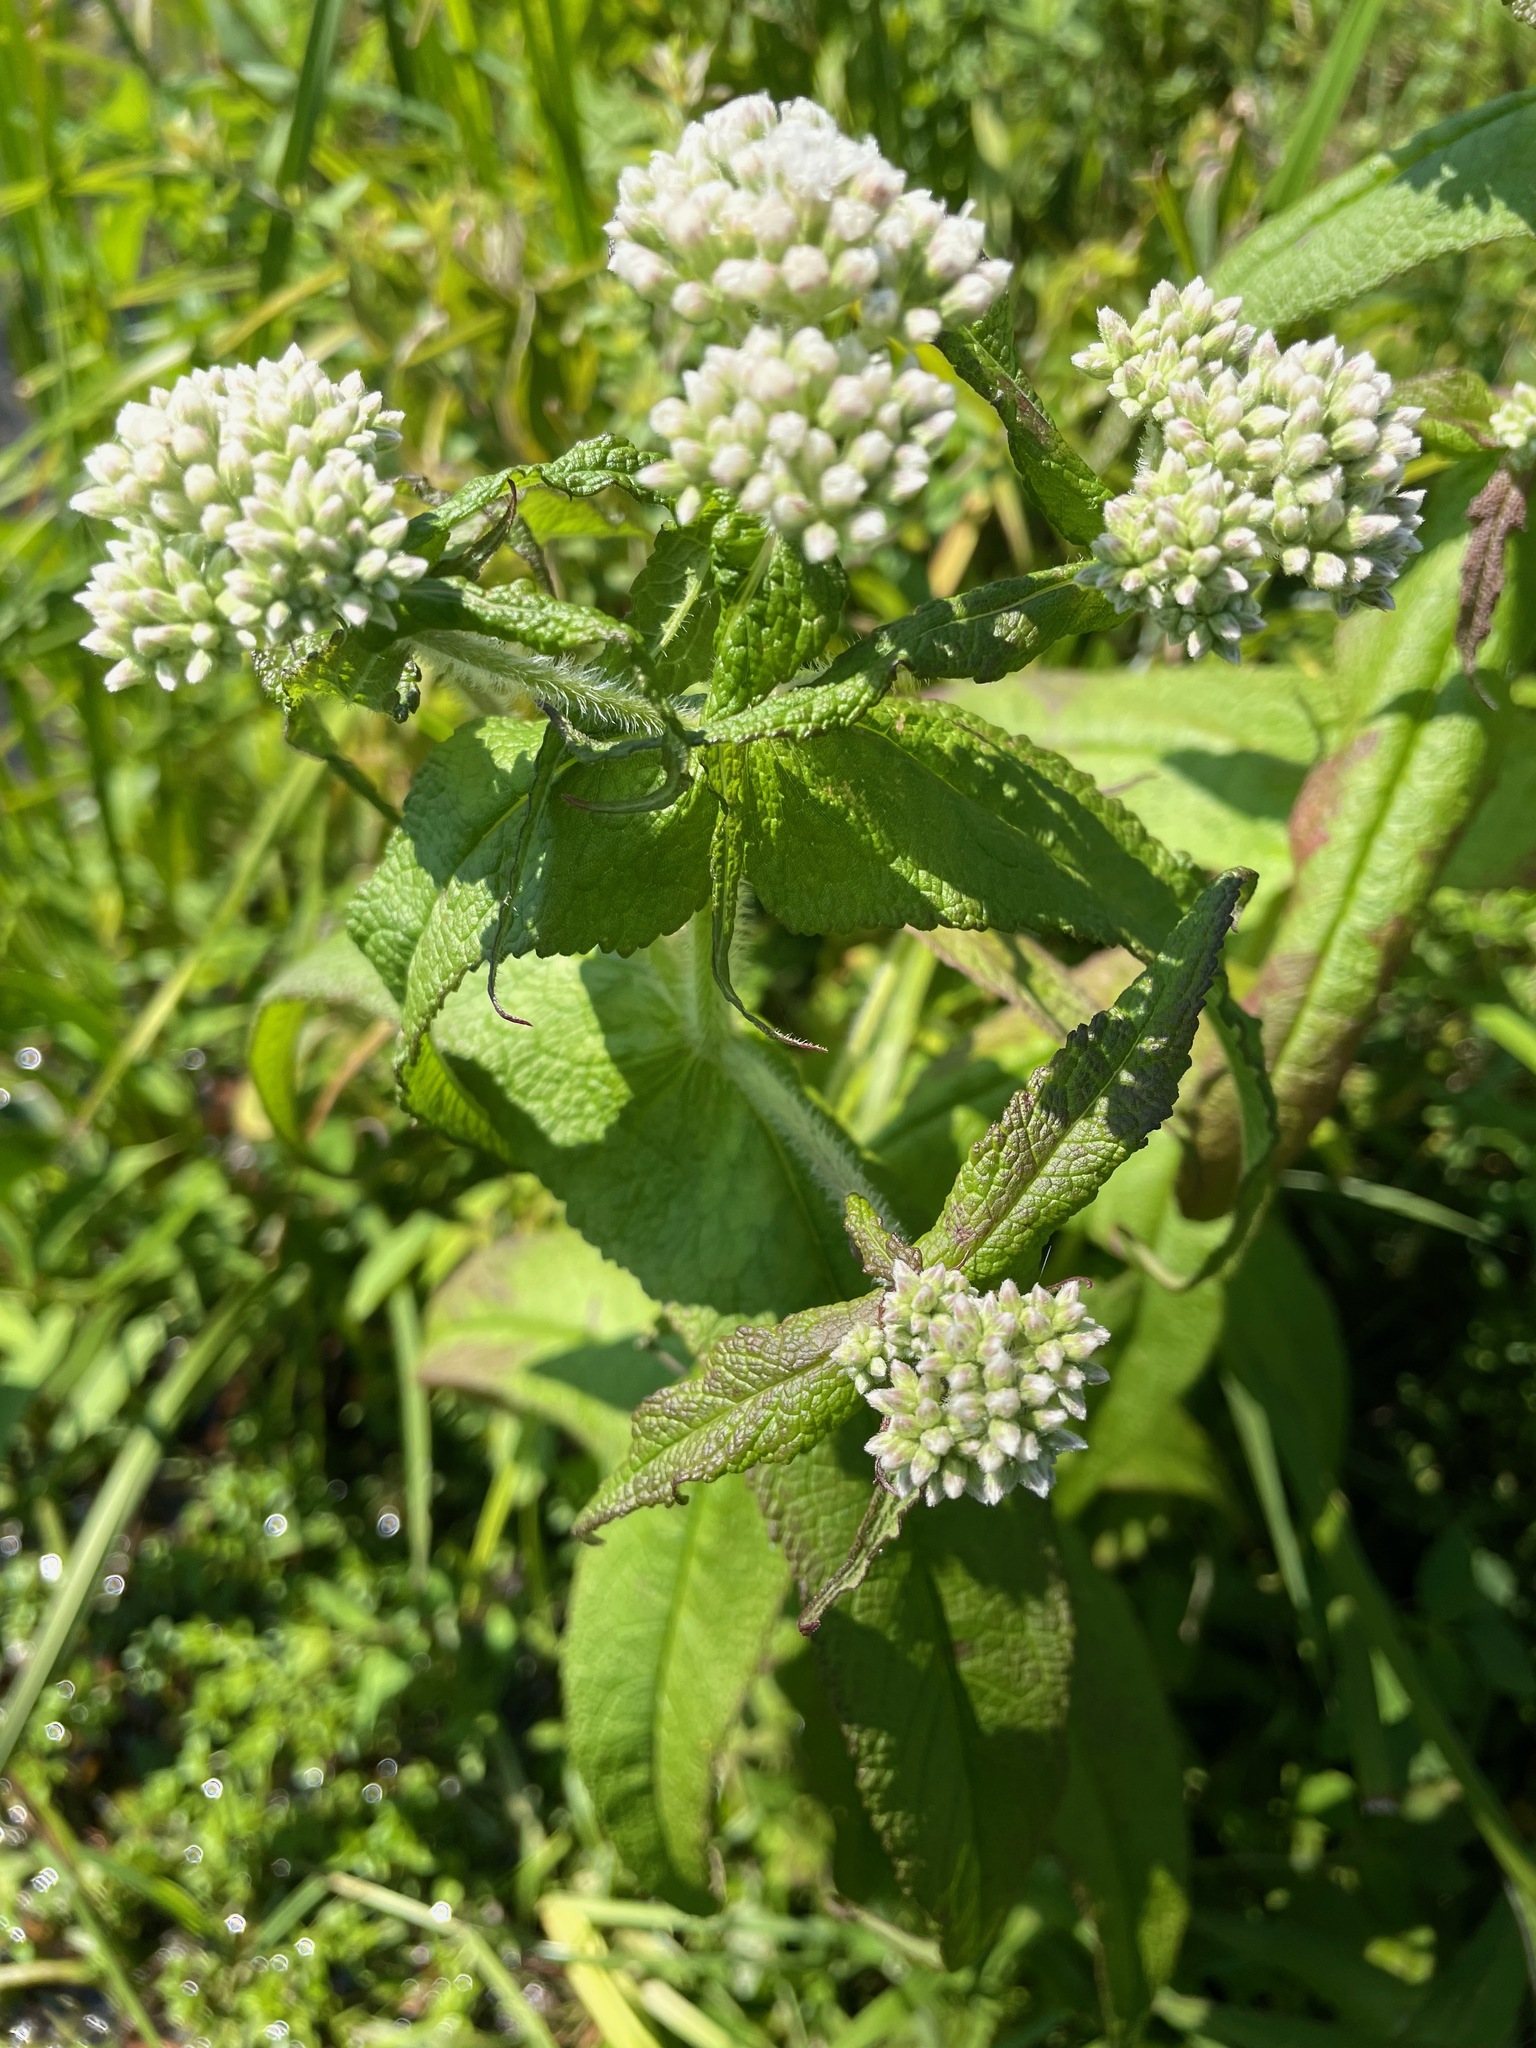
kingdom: Plantae
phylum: Tracheophyta
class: Magnoliopsida
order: Asterales
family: Asteraceae
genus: Eupatorium
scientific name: Eupatorium perfoliatum
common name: Boneset
